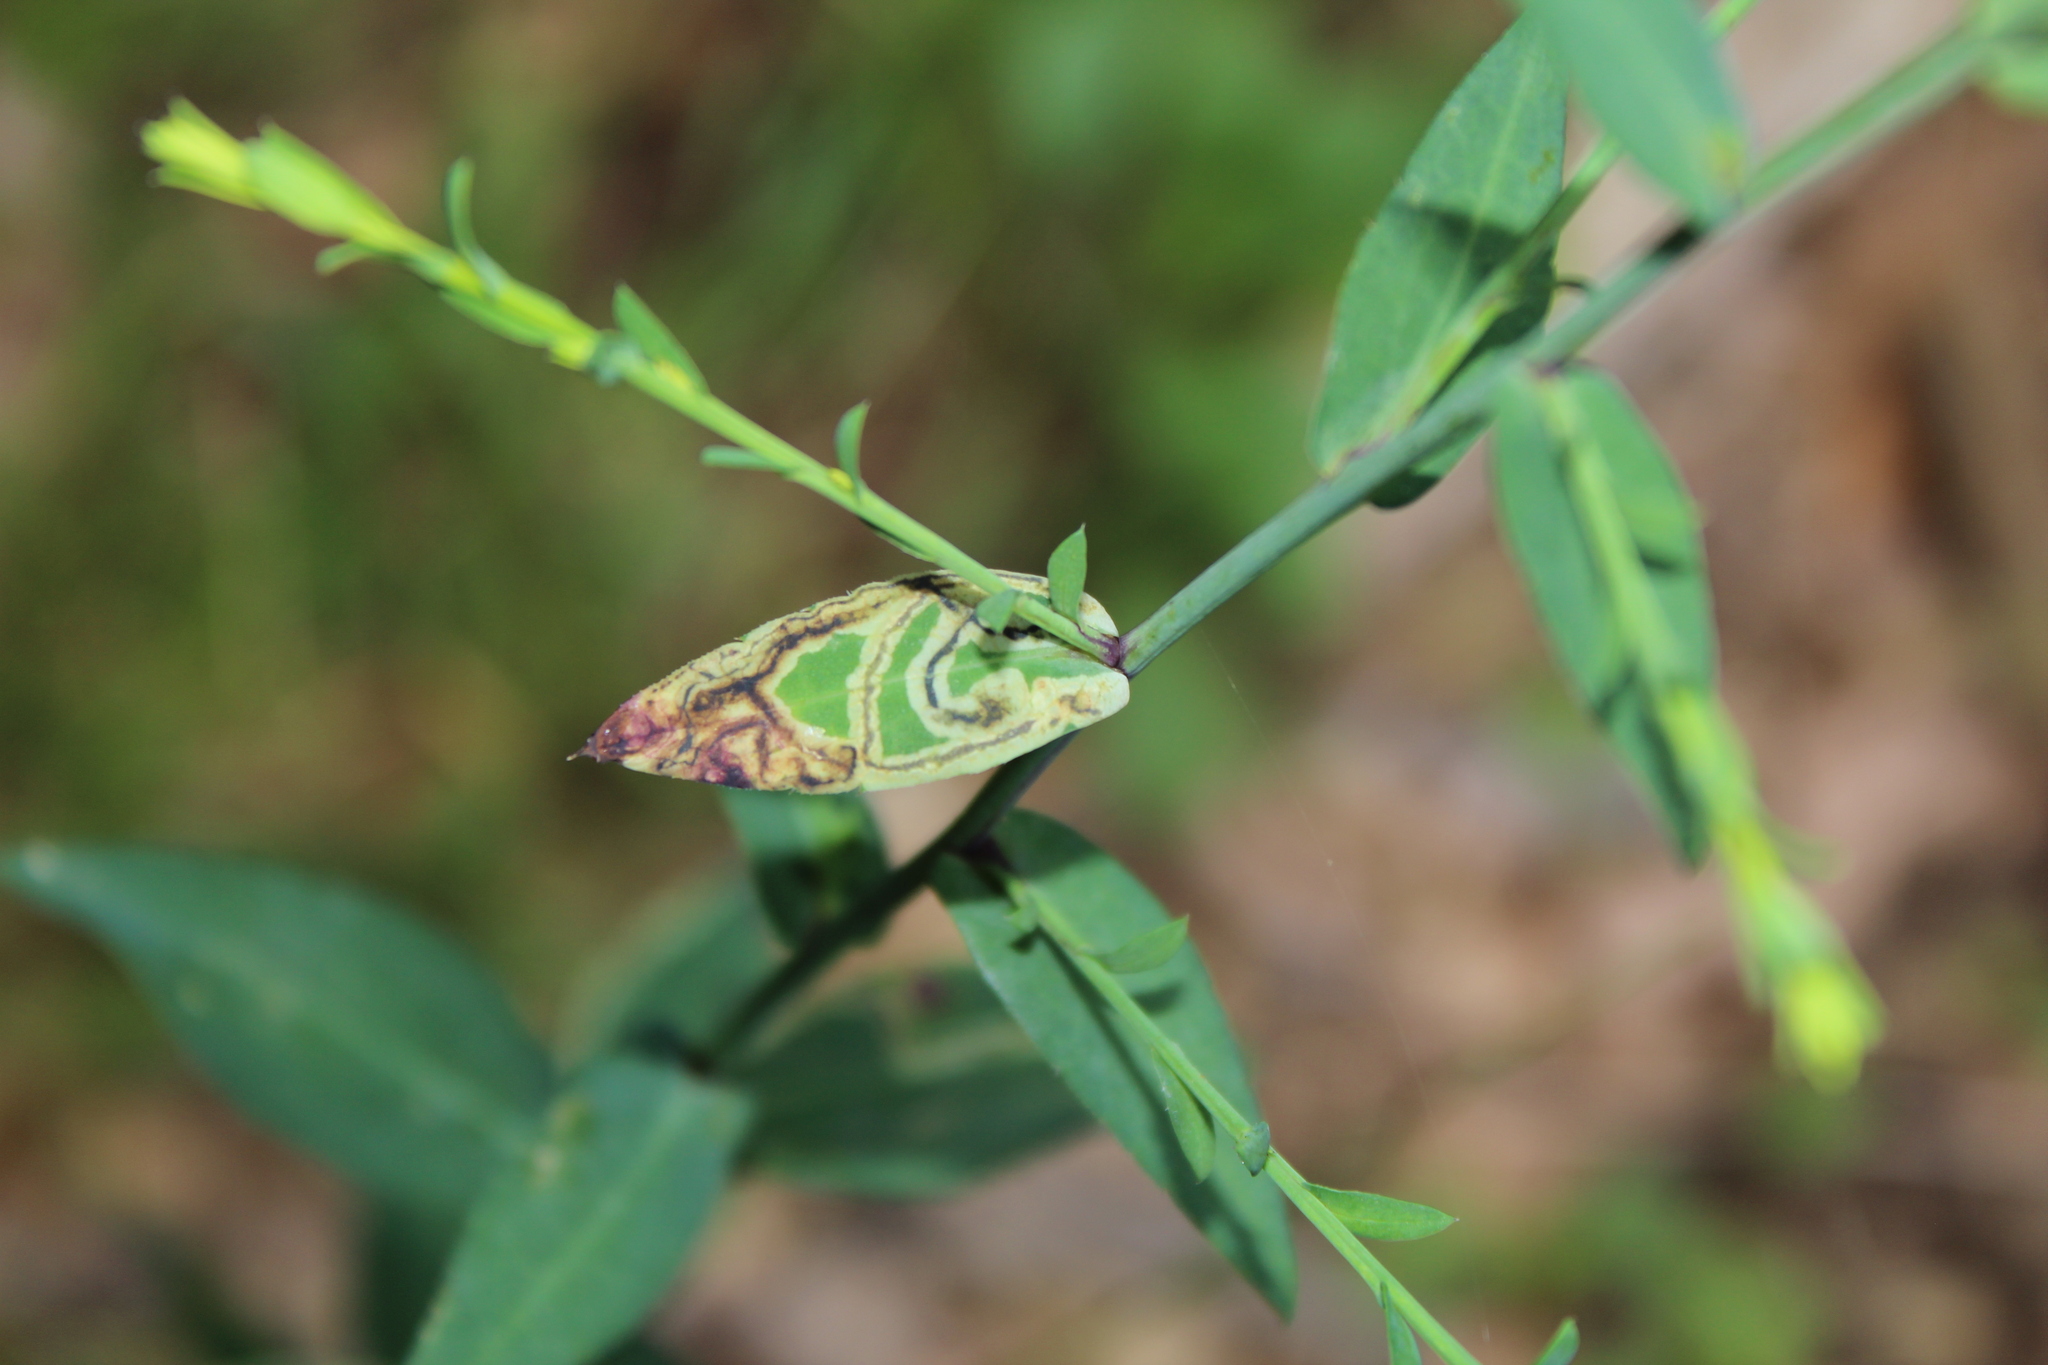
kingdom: Animalia
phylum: Arthropoda
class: Insecta
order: Diptera
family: Agromyzidae
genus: Liriomyza
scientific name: Liriomyza eupatorii
